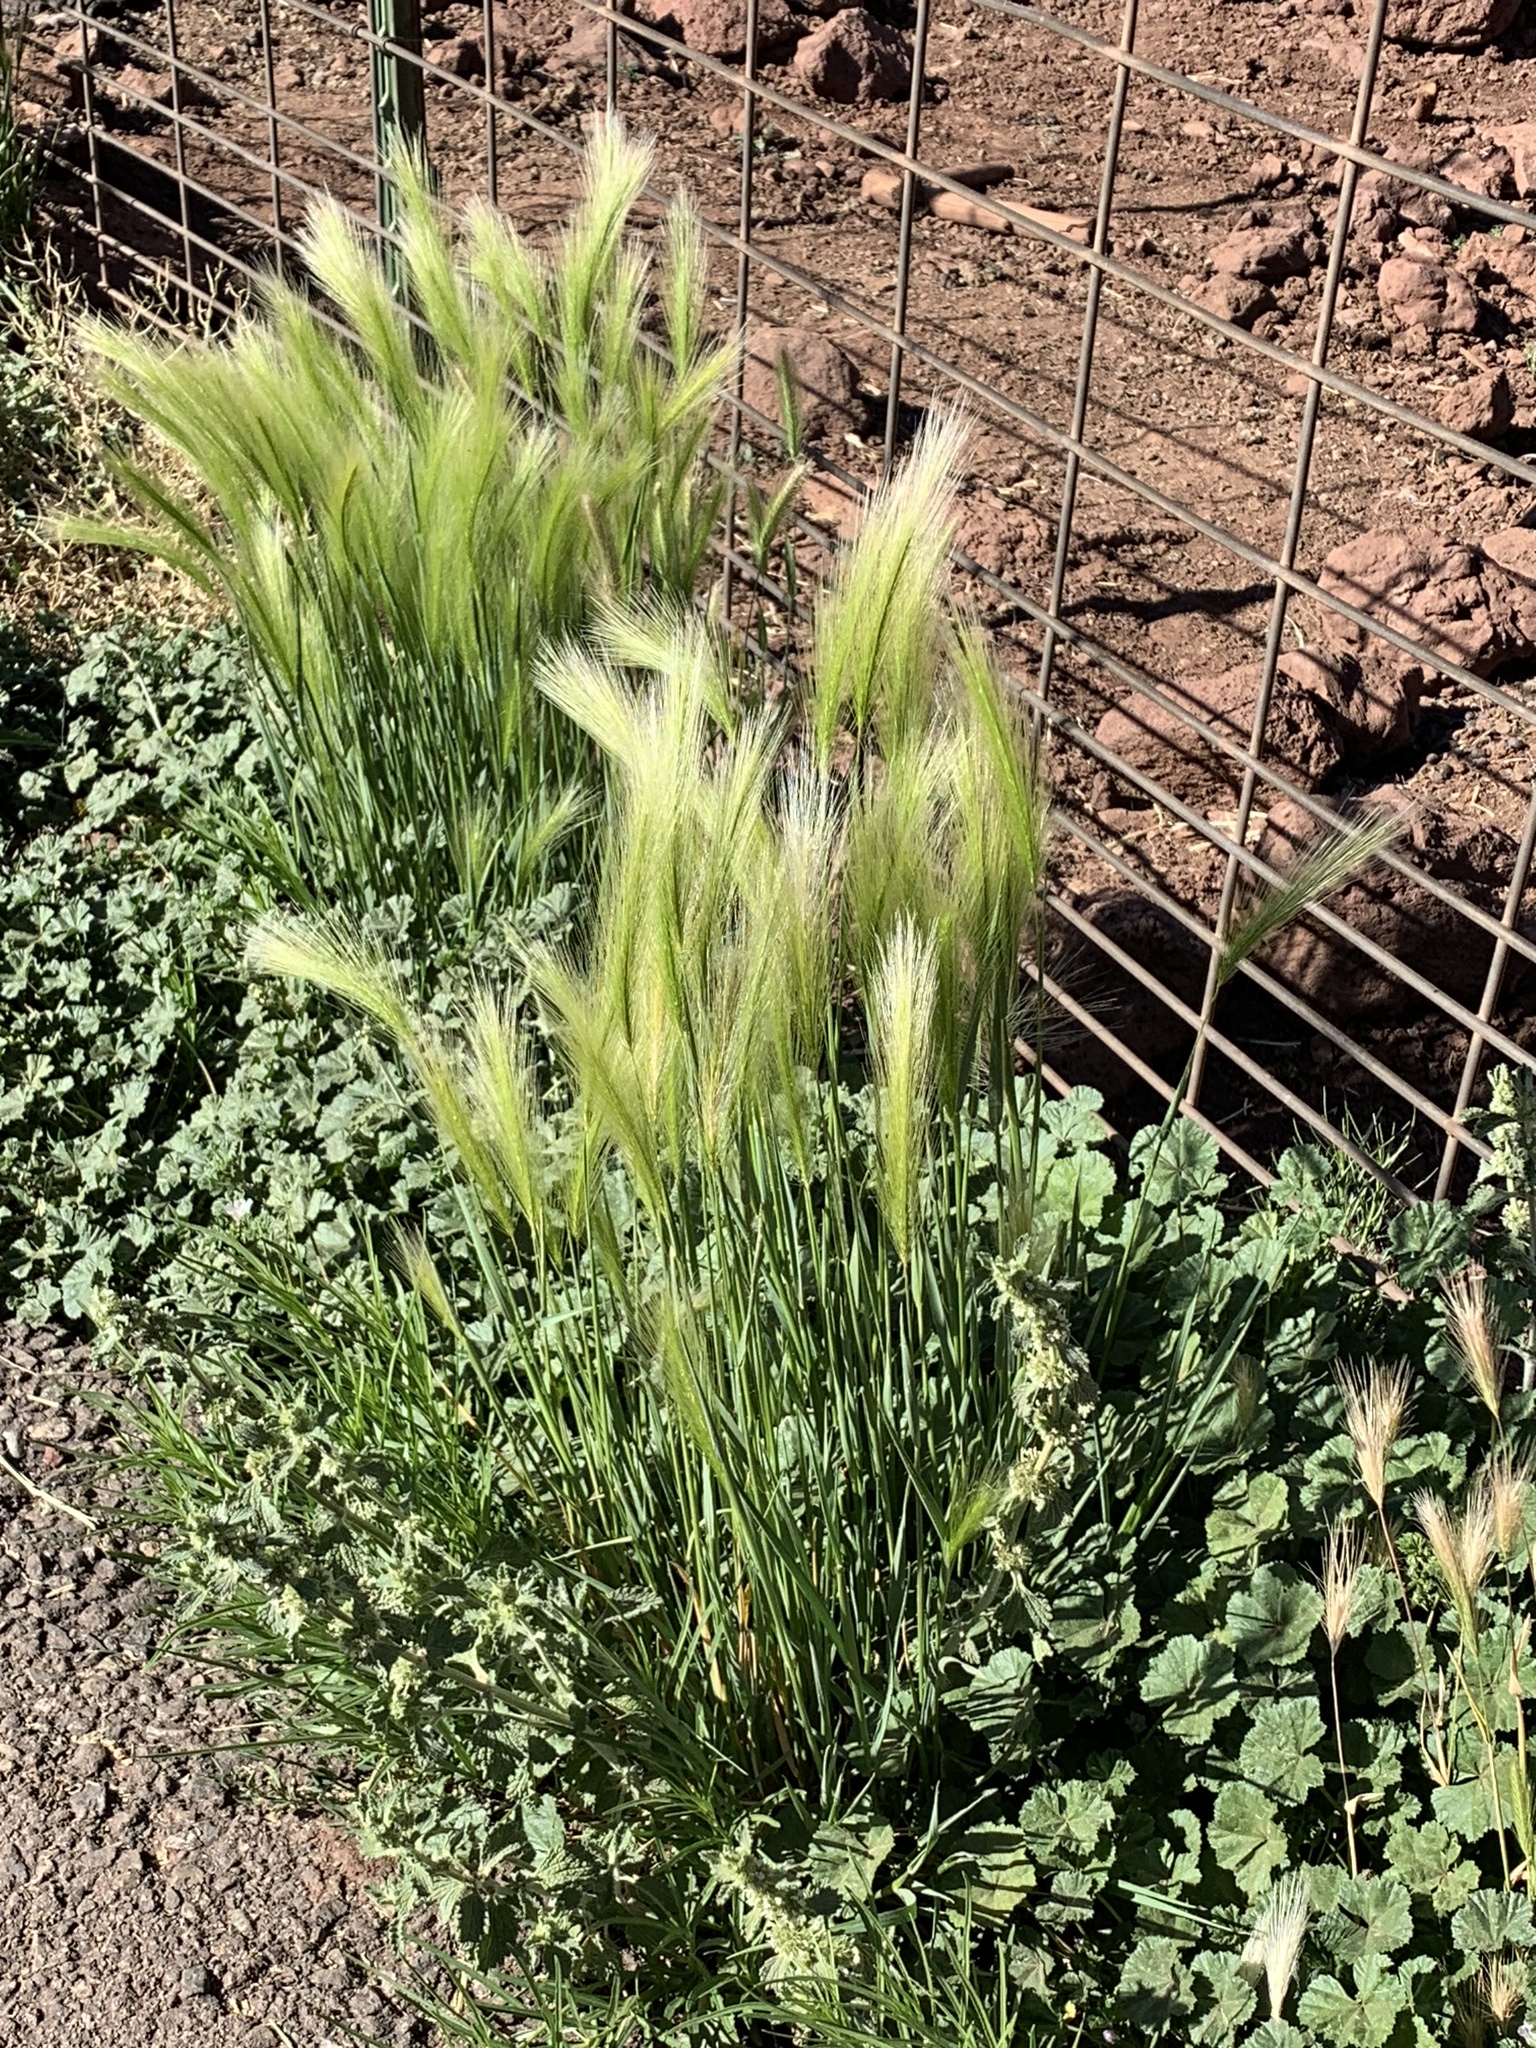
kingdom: Plantae
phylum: Tracheophyta
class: Liliopsida
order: Poales
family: Poaceae
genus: Hordeum
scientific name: Hordeum jubatum
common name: Foxtail barley
